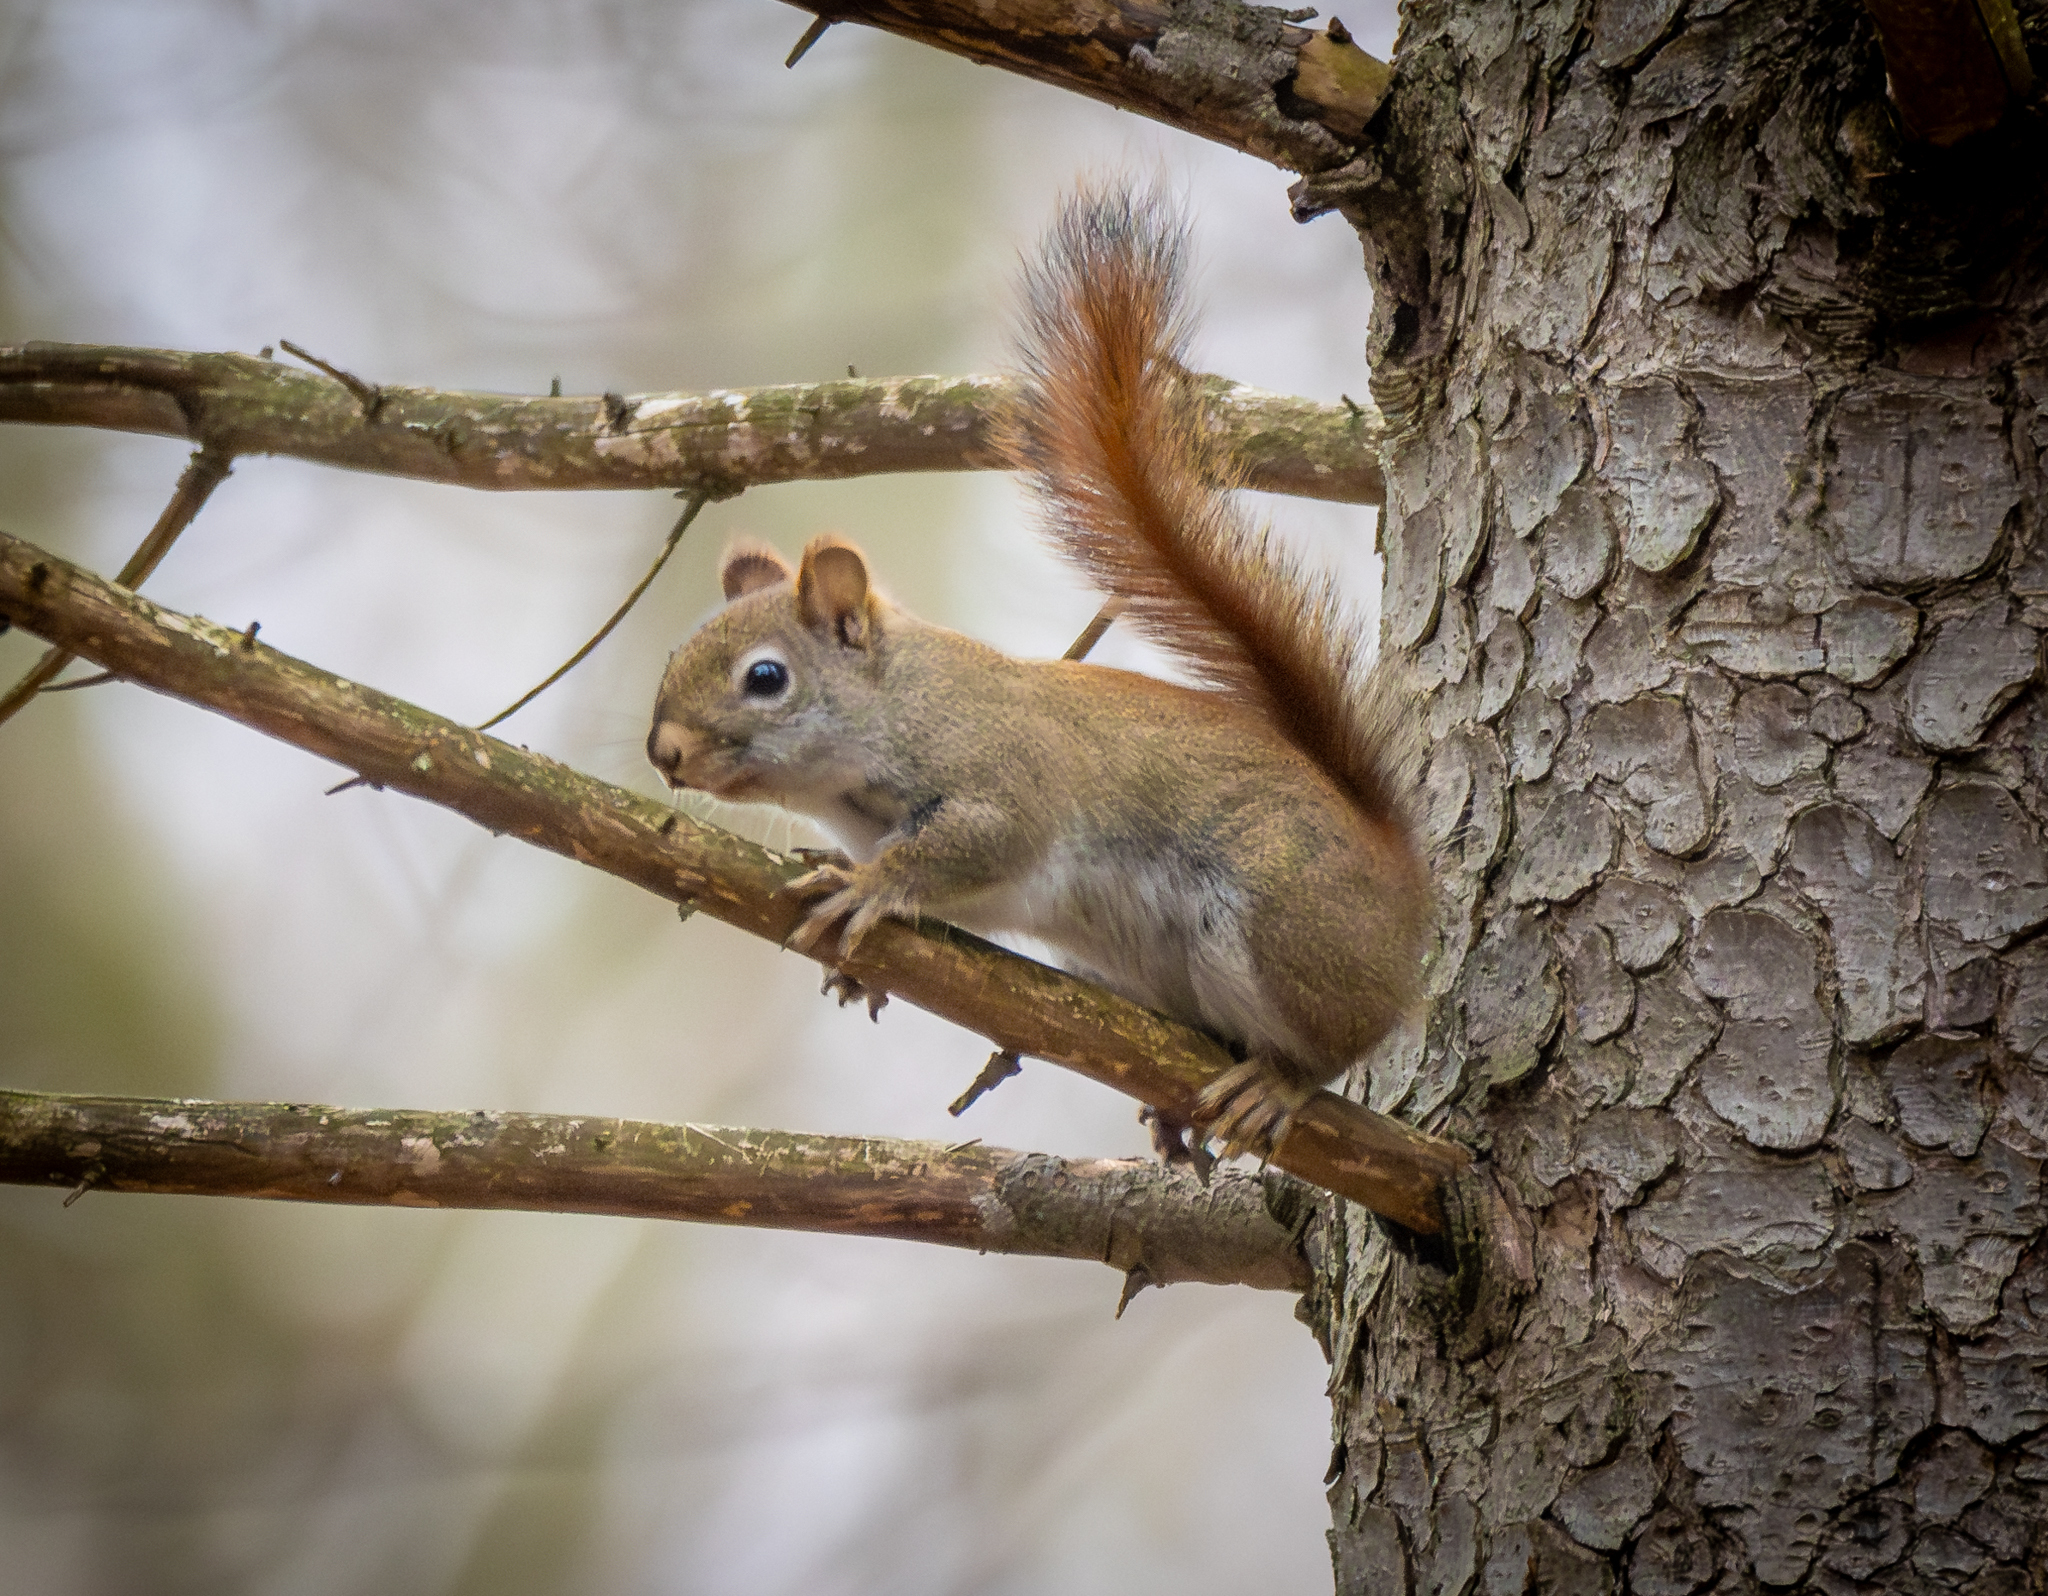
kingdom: Animalia
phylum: Chordata
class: Mammalia
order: Rodentia
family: Sciuridae
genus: Tamiasciurus
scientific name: Tamiasciurus hudsonicus
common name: Red squirrel
